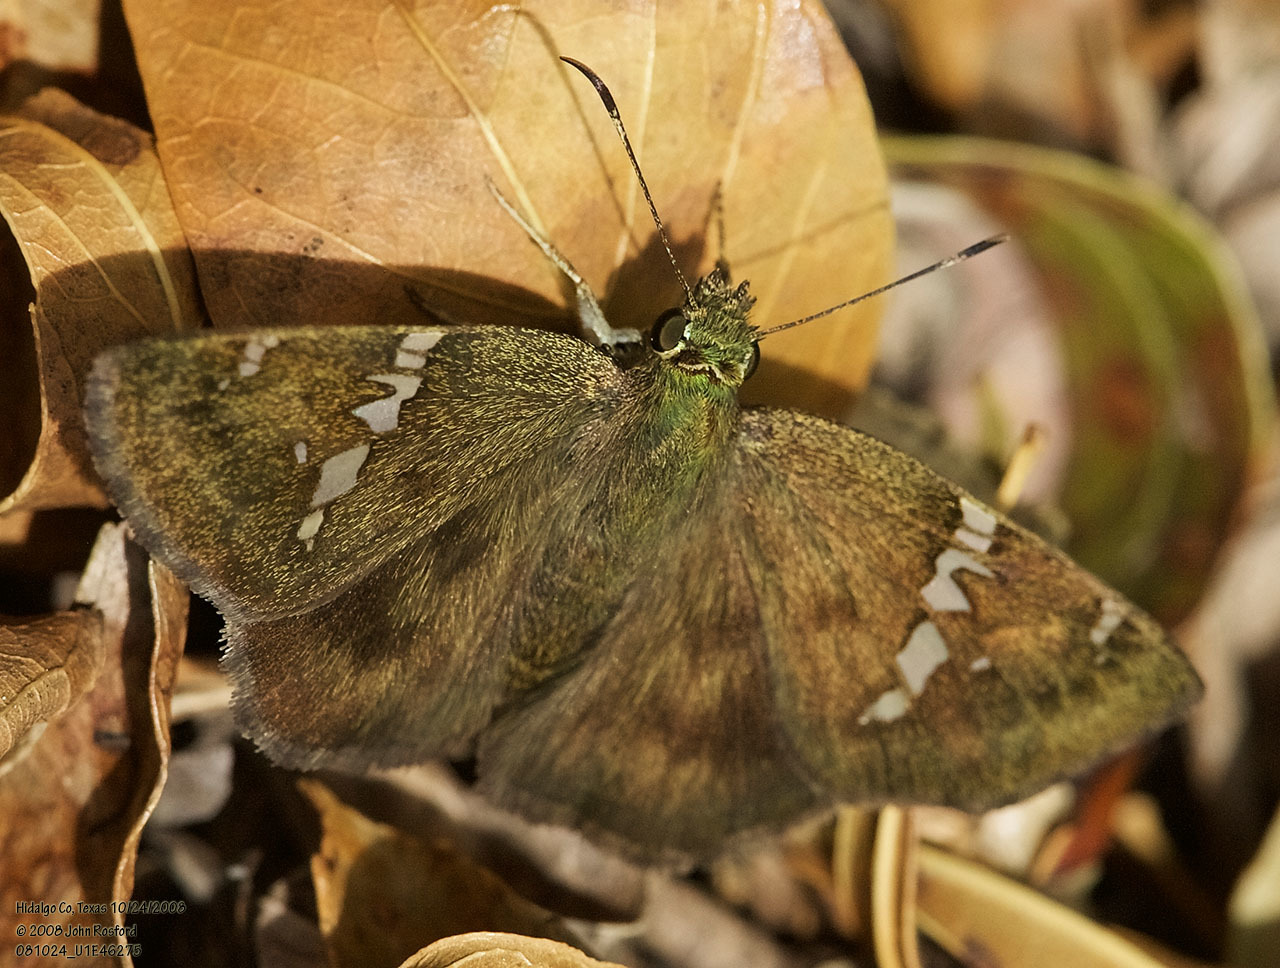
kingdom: Animalia
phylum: Arthropoda
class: Insecta
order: Lepidoptera
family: Hesperiidae
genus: Autochton
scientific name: Autochton potrillo
